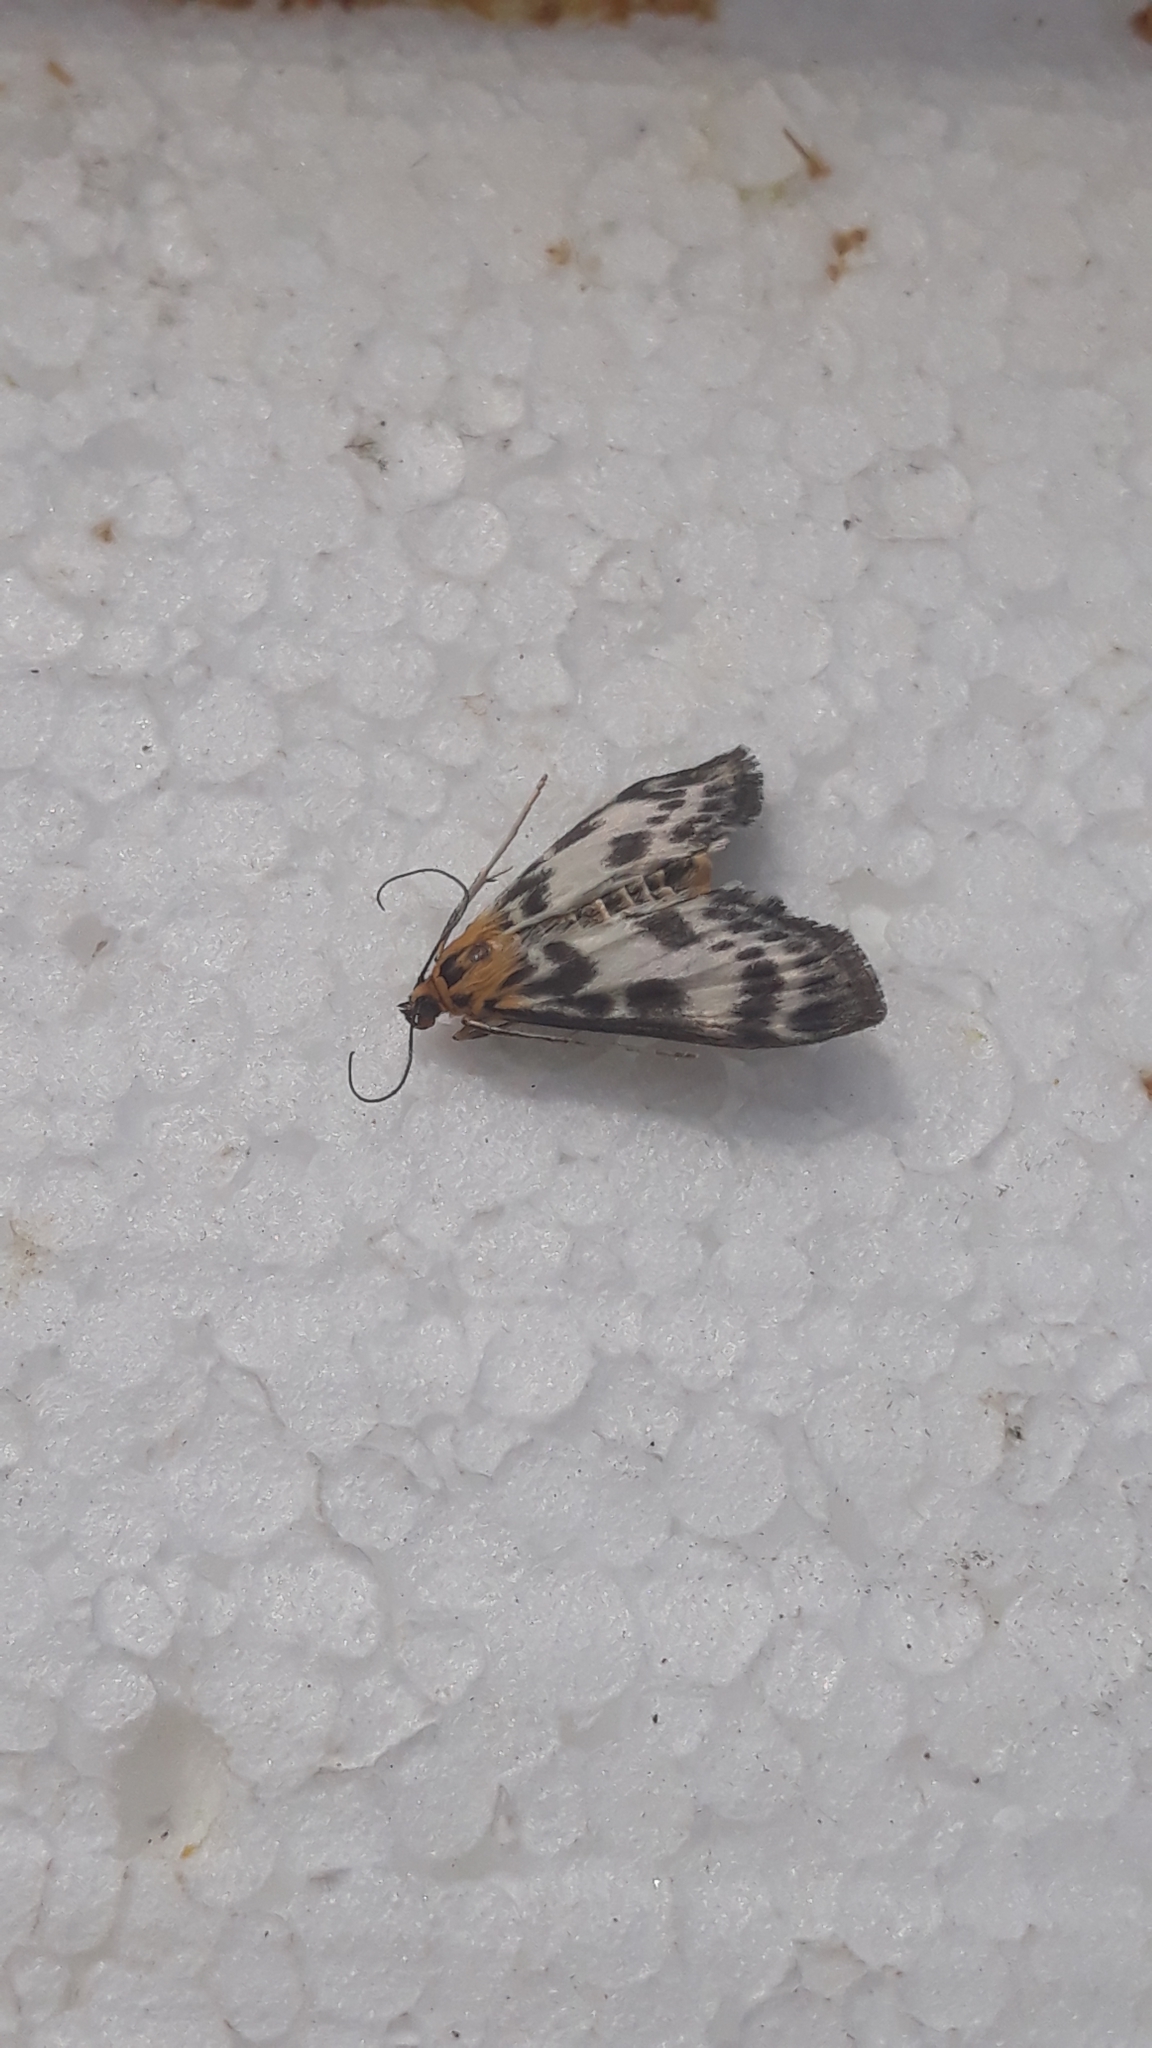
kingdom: Animalia
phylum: Arthropoda
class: Insecta
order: Lepidoptera
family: Crambidae
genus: Anania
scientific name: Anania hortulata
